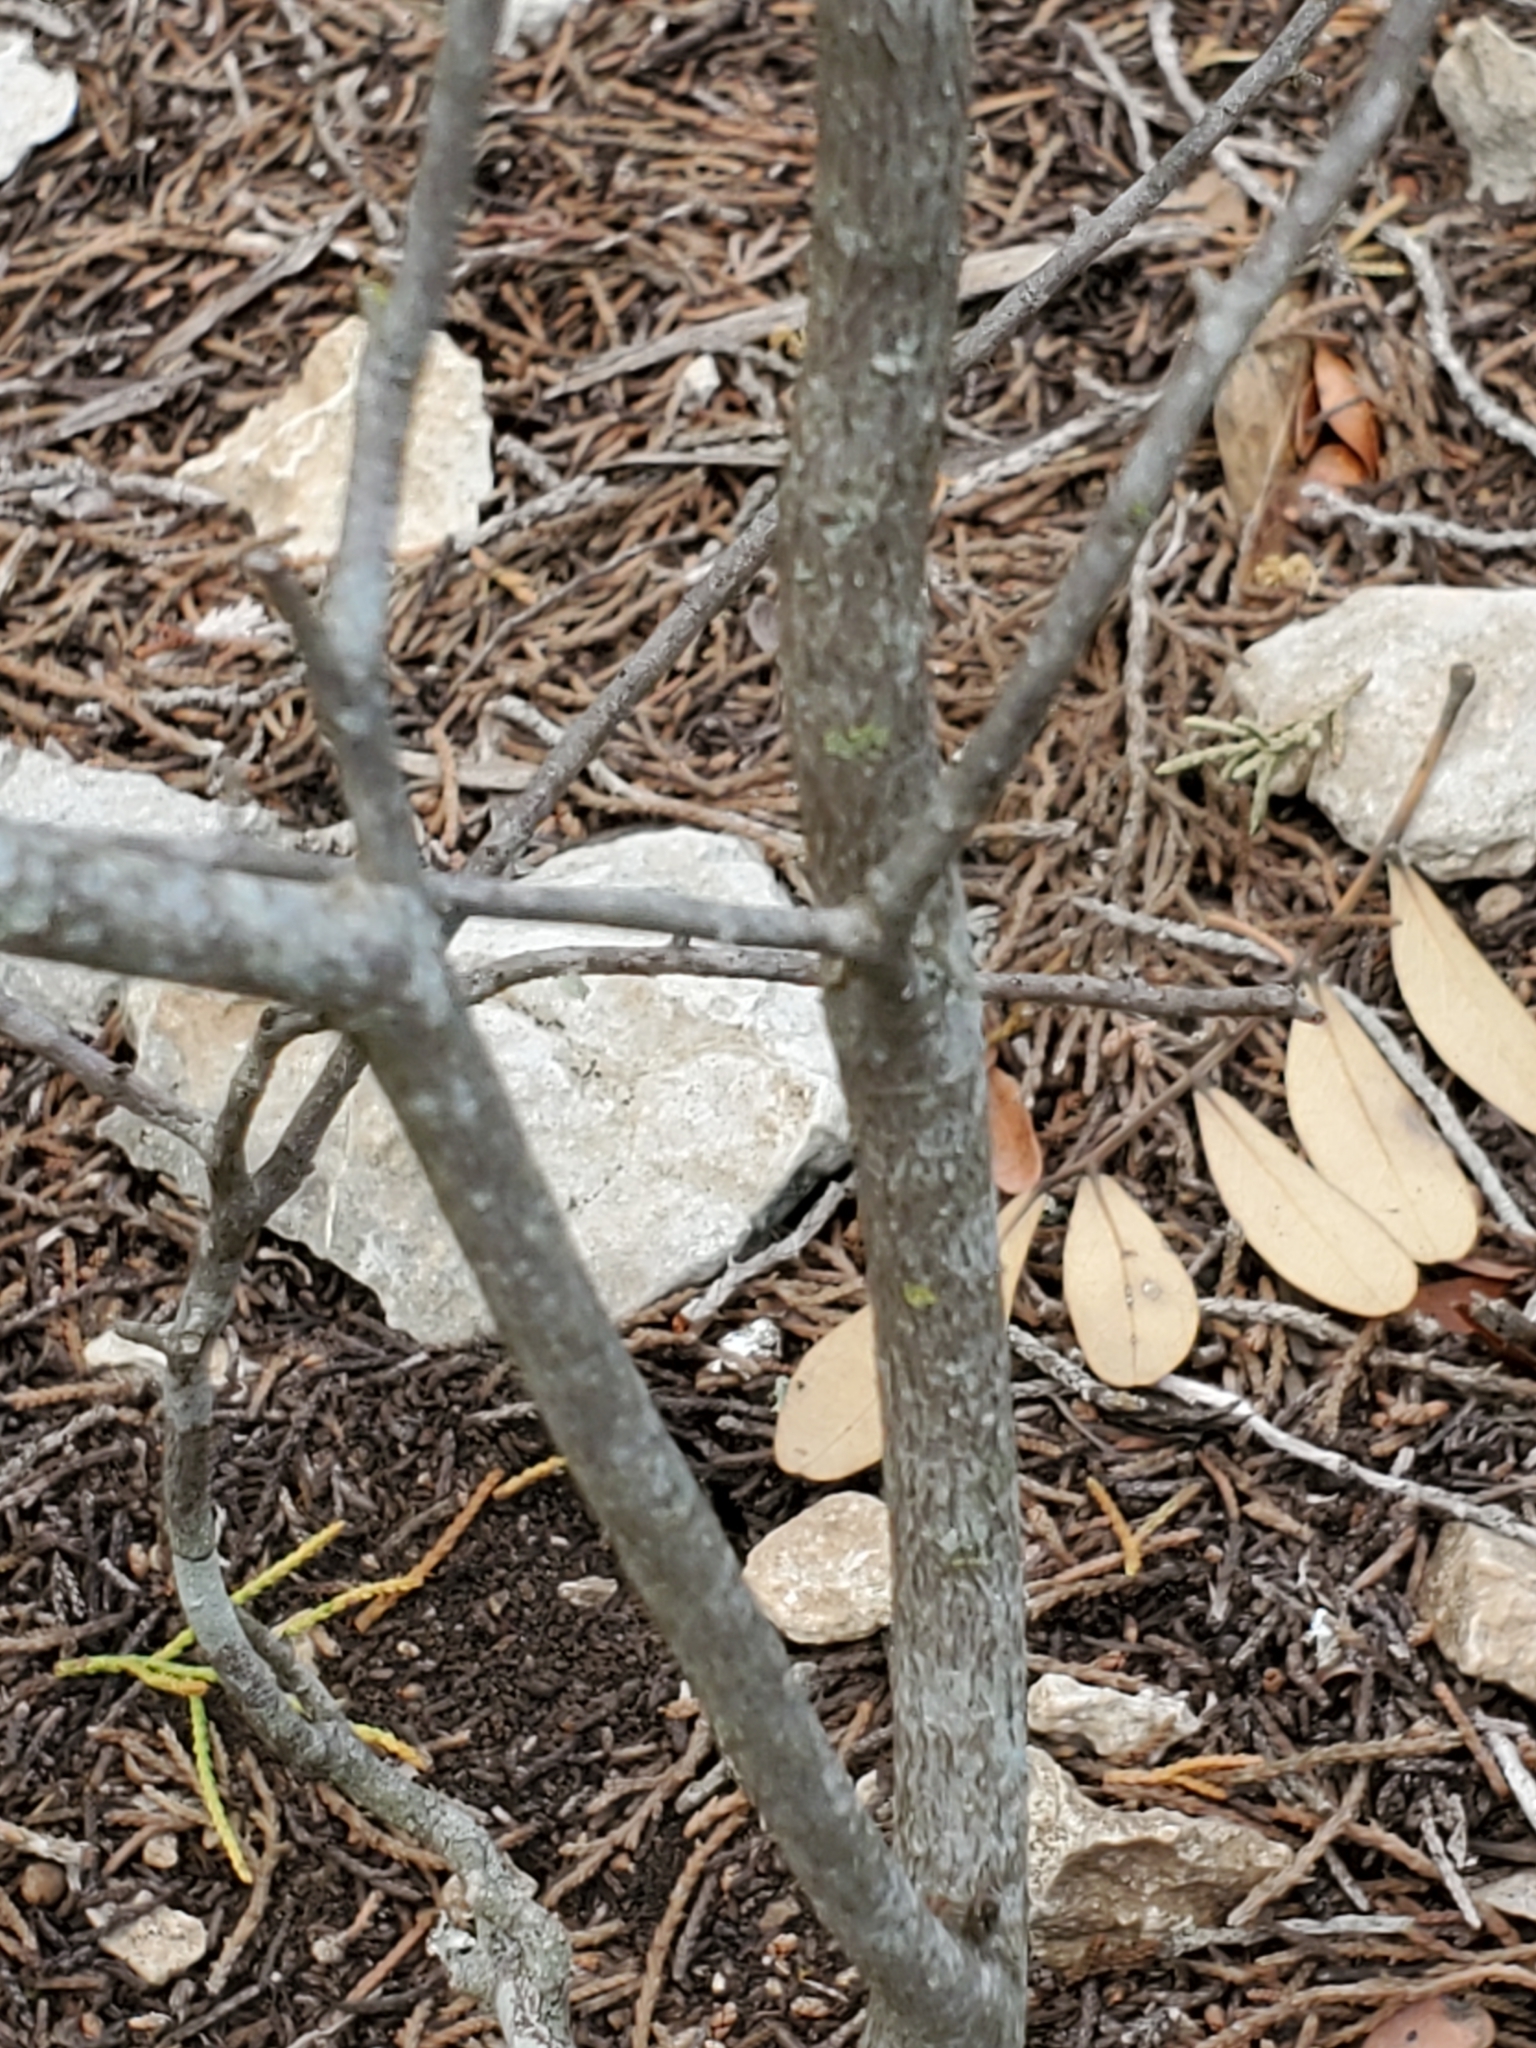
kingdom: Plantae
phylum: Tracheophyta
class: Magnoliopsida
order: Ericales
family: Ebenaceae
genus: Diospyros
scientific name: Diospyros texana
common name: Texas persimmon
